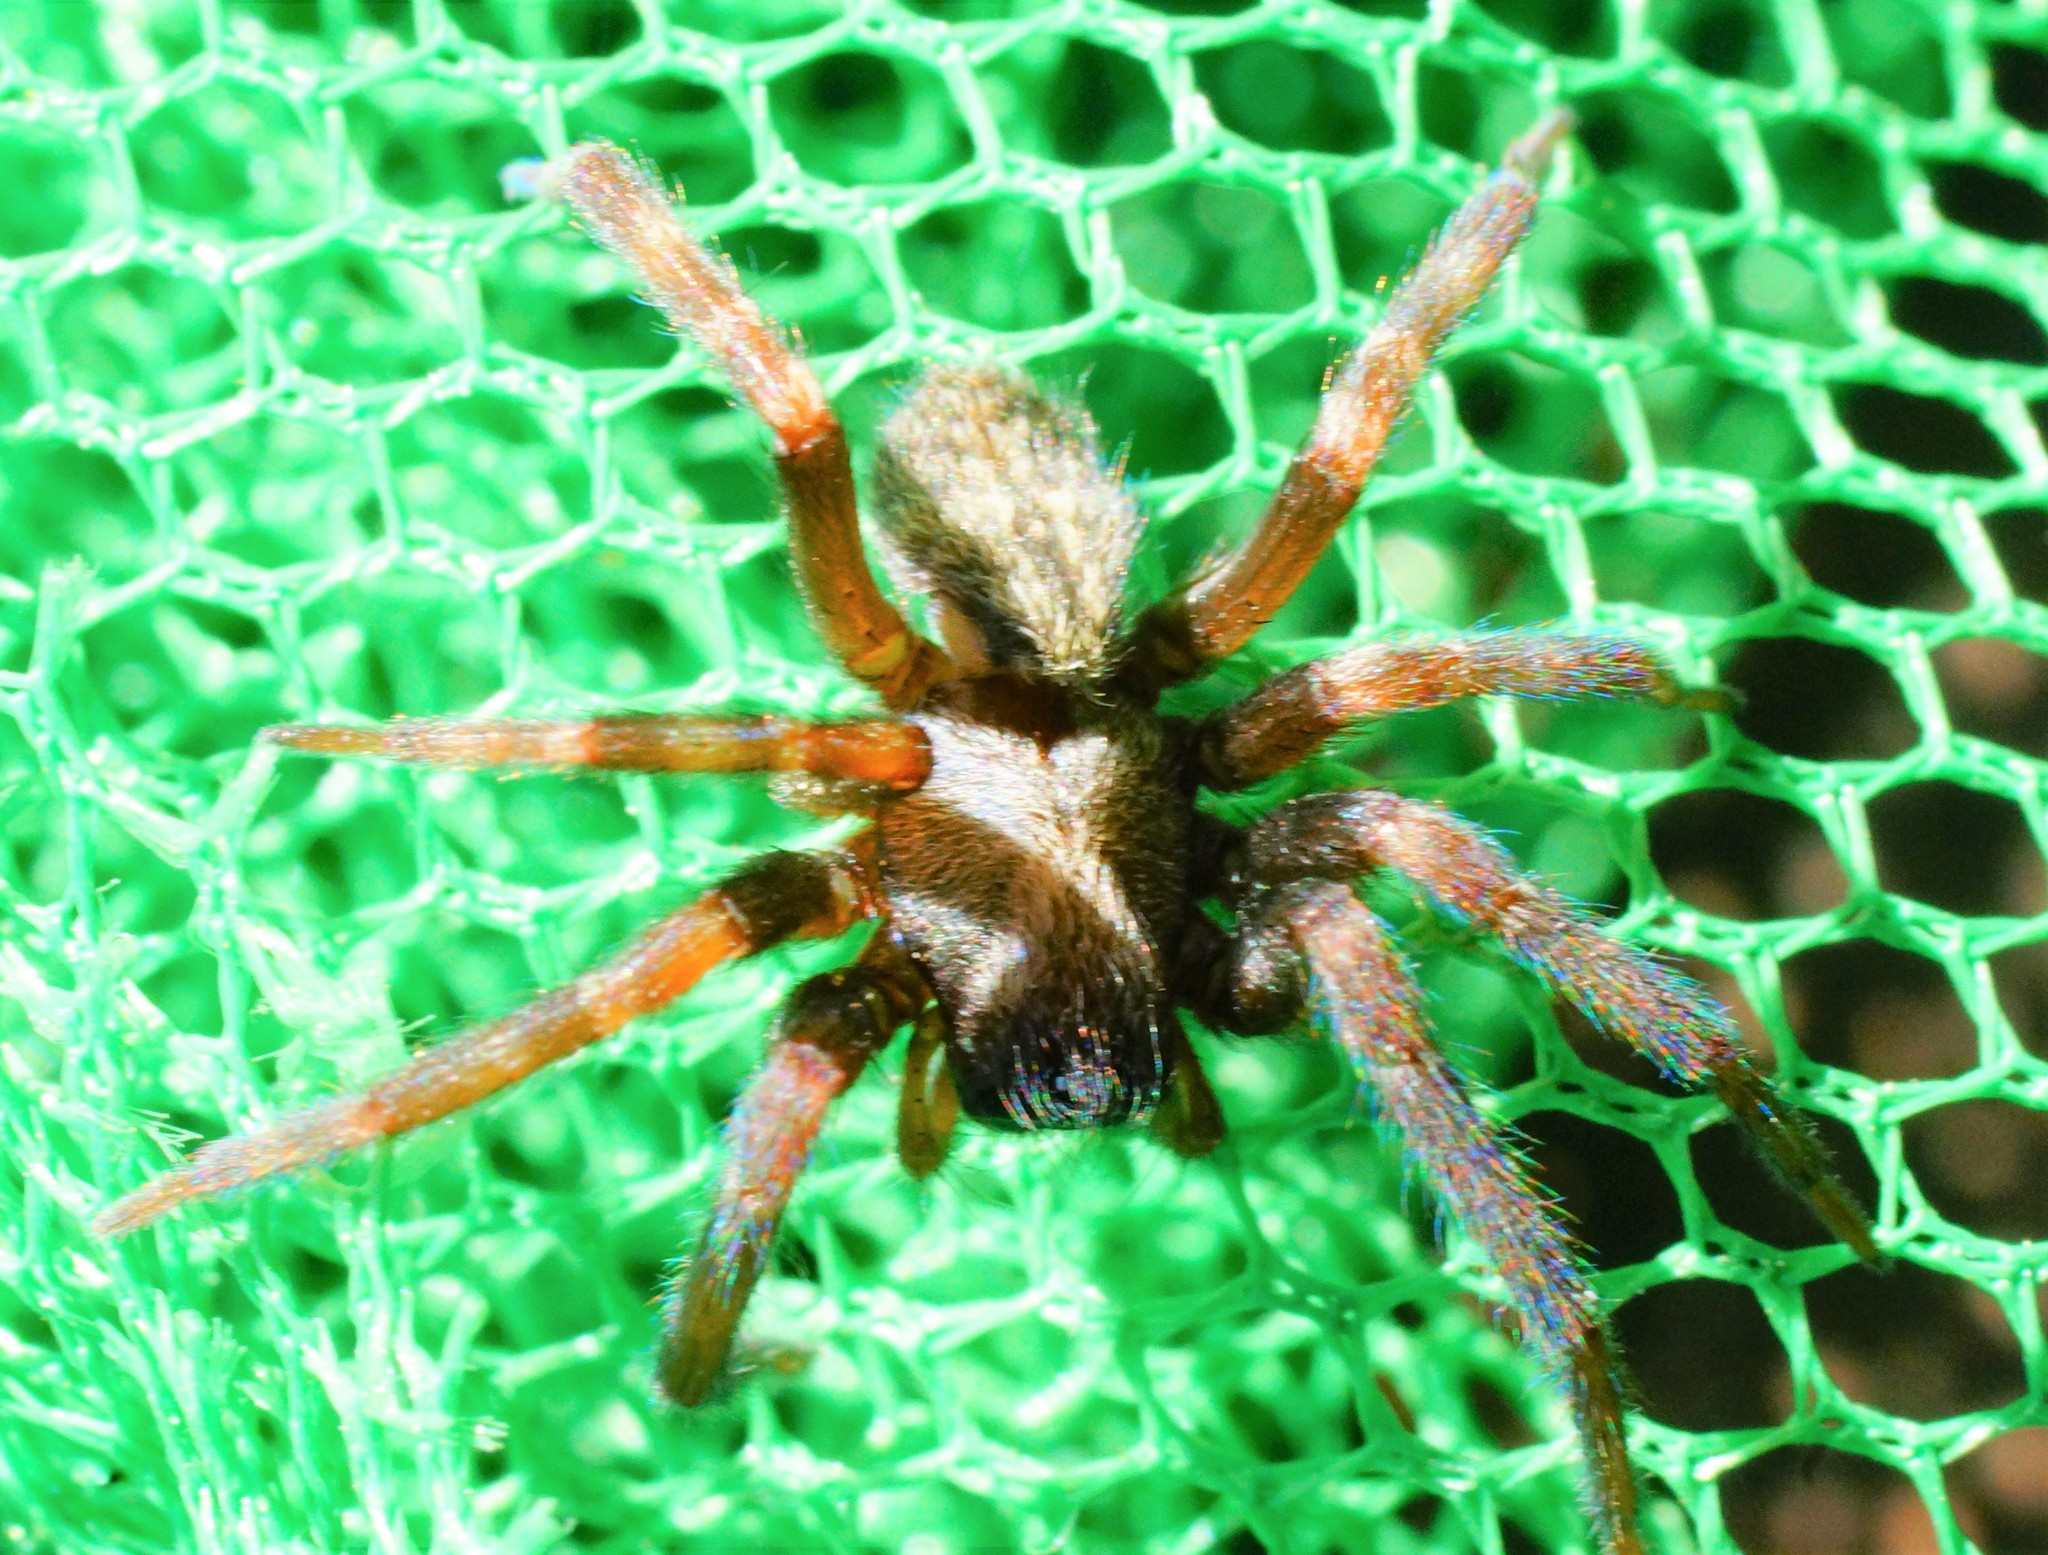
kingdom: Animalia
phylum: Arthropoda
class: Arachnida
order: Araneae
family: Desidae
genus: Badumna
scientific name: Badumna longinqua
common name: Gray house spider
